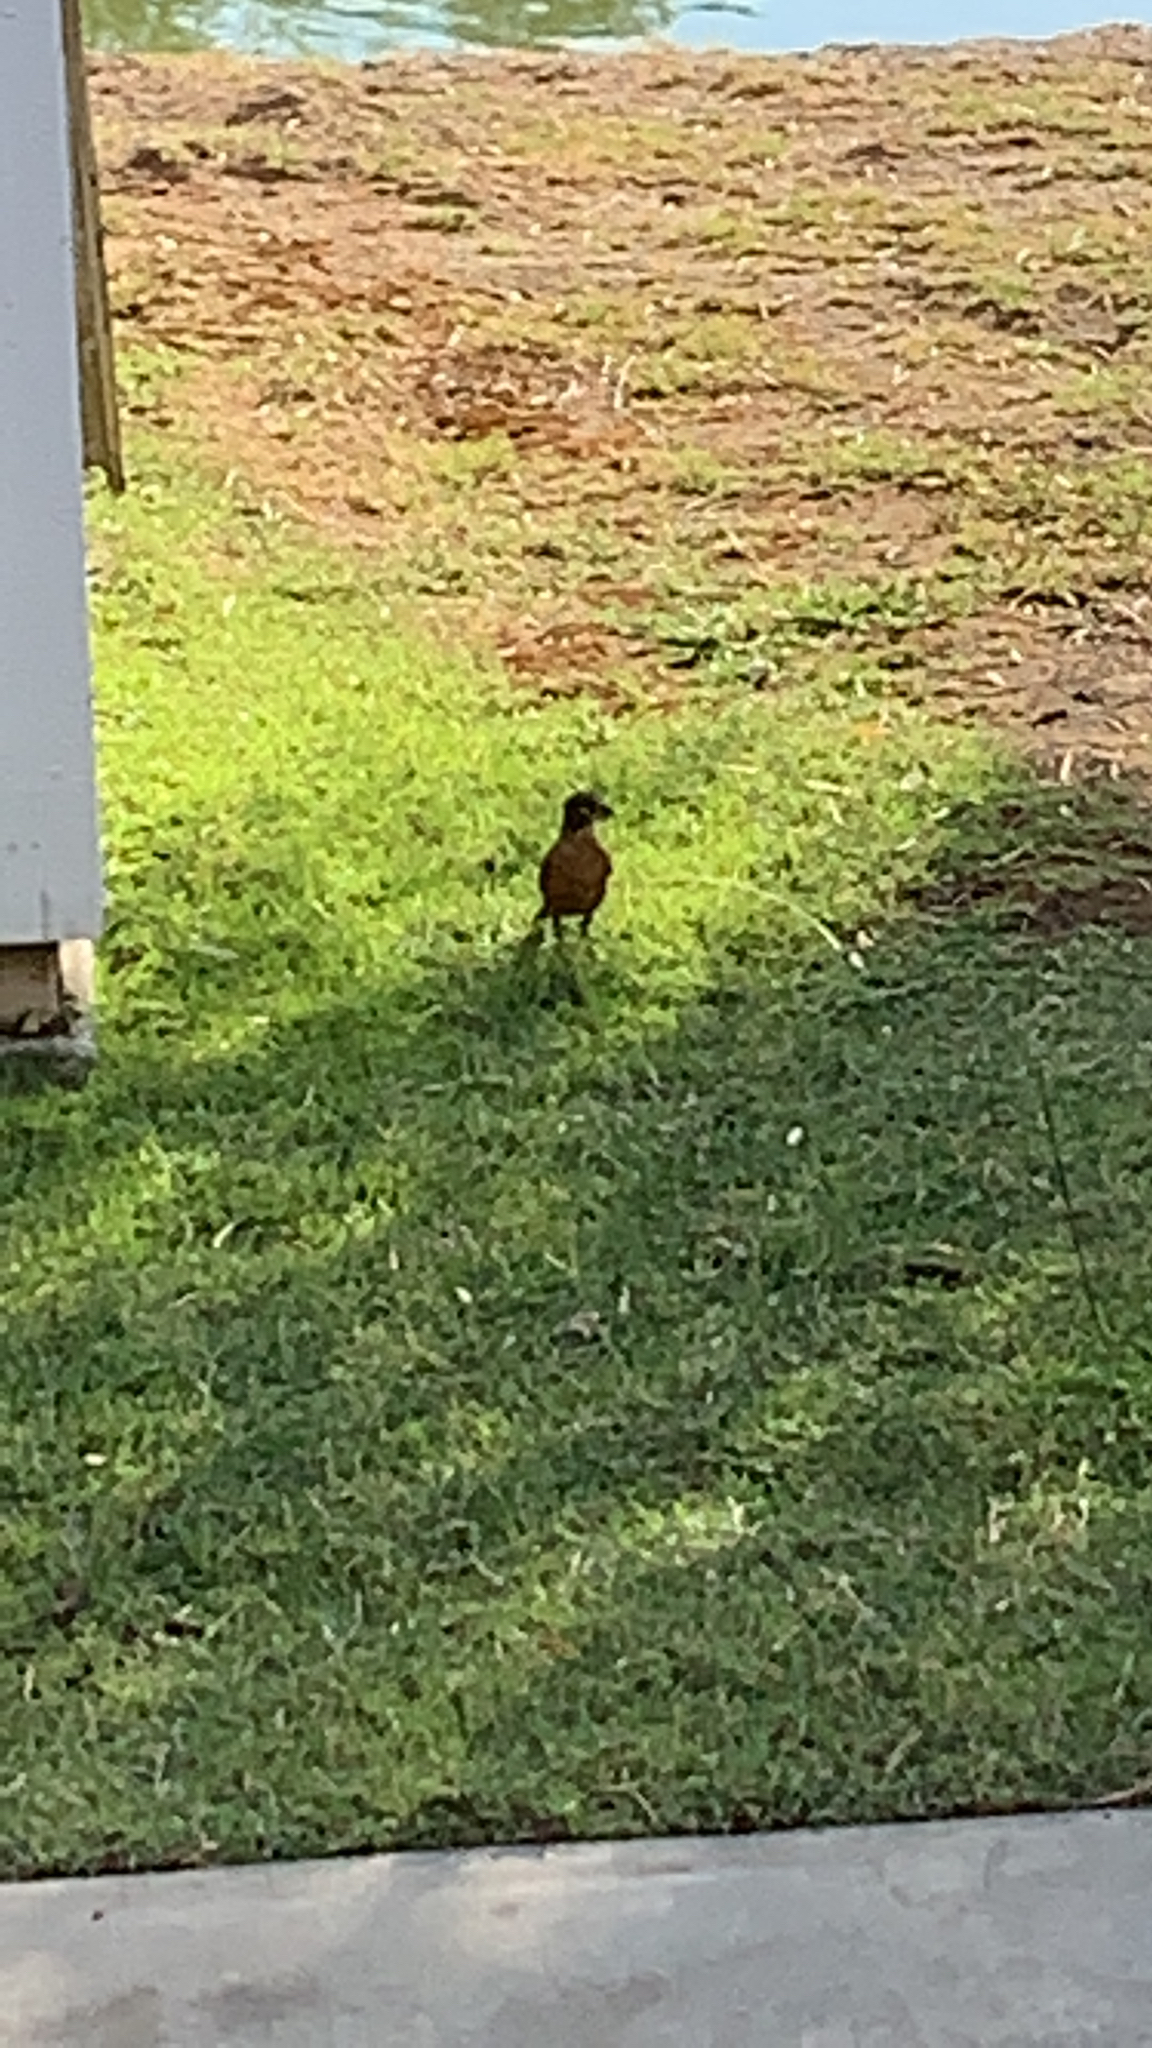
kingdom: Animalia
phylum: Chordata
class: Aves
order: Passeriformes
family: Turdidae
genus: Turdus
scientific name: Turdus migratorius
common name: American robin
